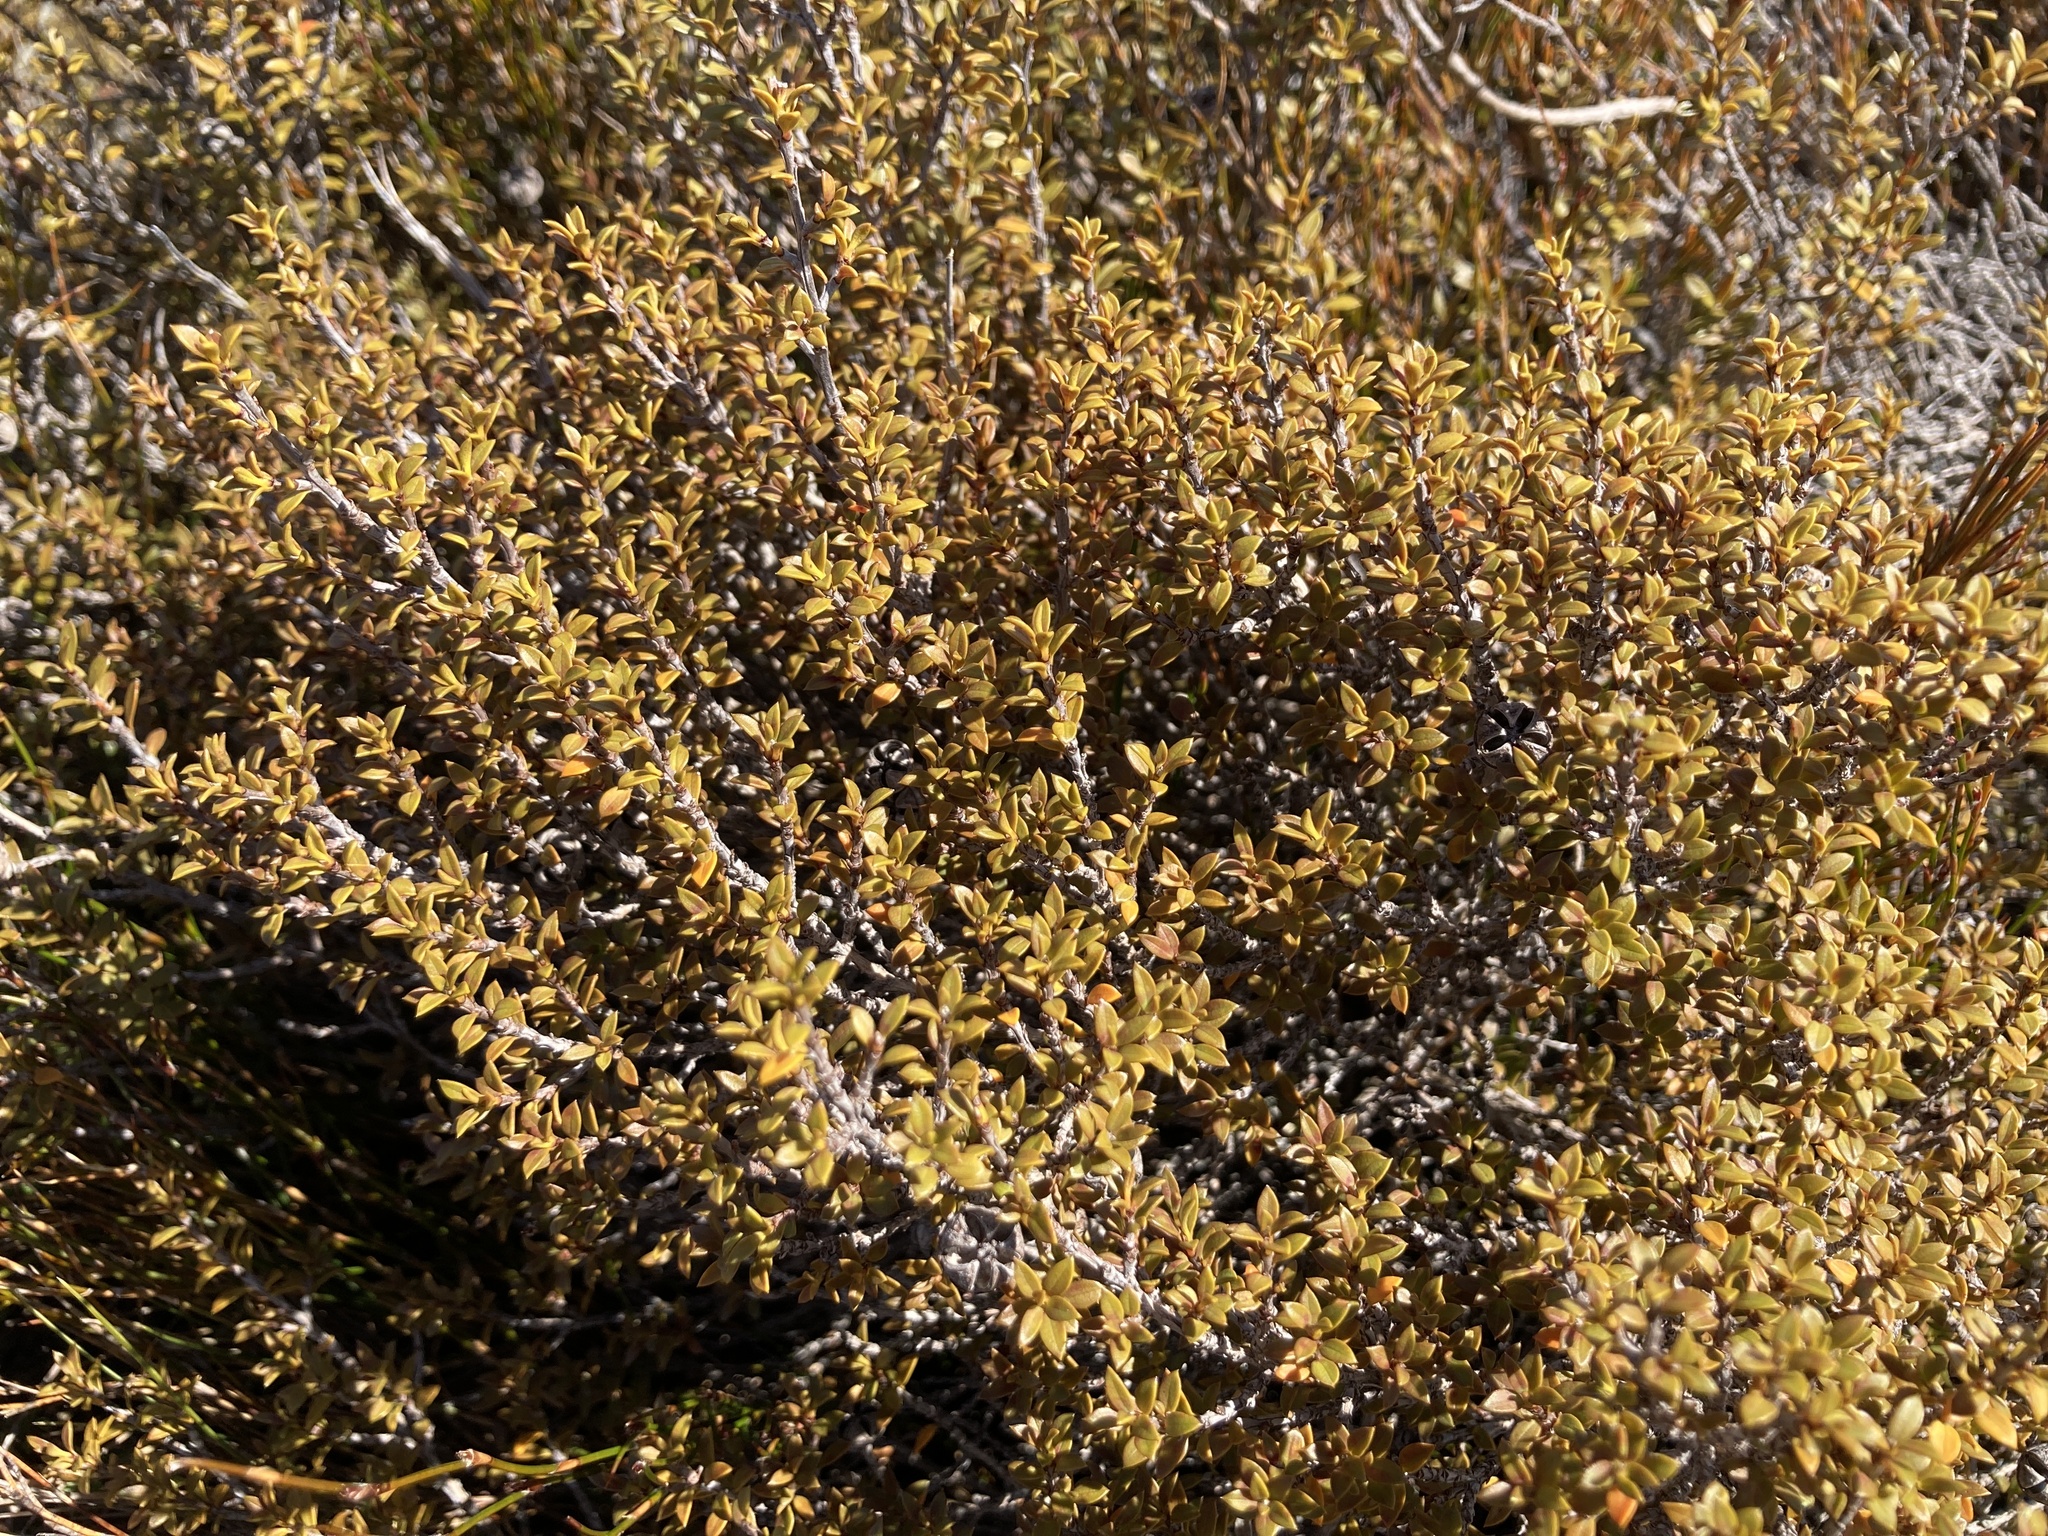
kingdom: Plantae
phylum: Tracheophyta
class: Magnoliopsida
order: Myrtales
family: Myrtaceae
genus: Leptospermum
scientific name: Leptospermum scoparium
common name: Broom tea-tree
